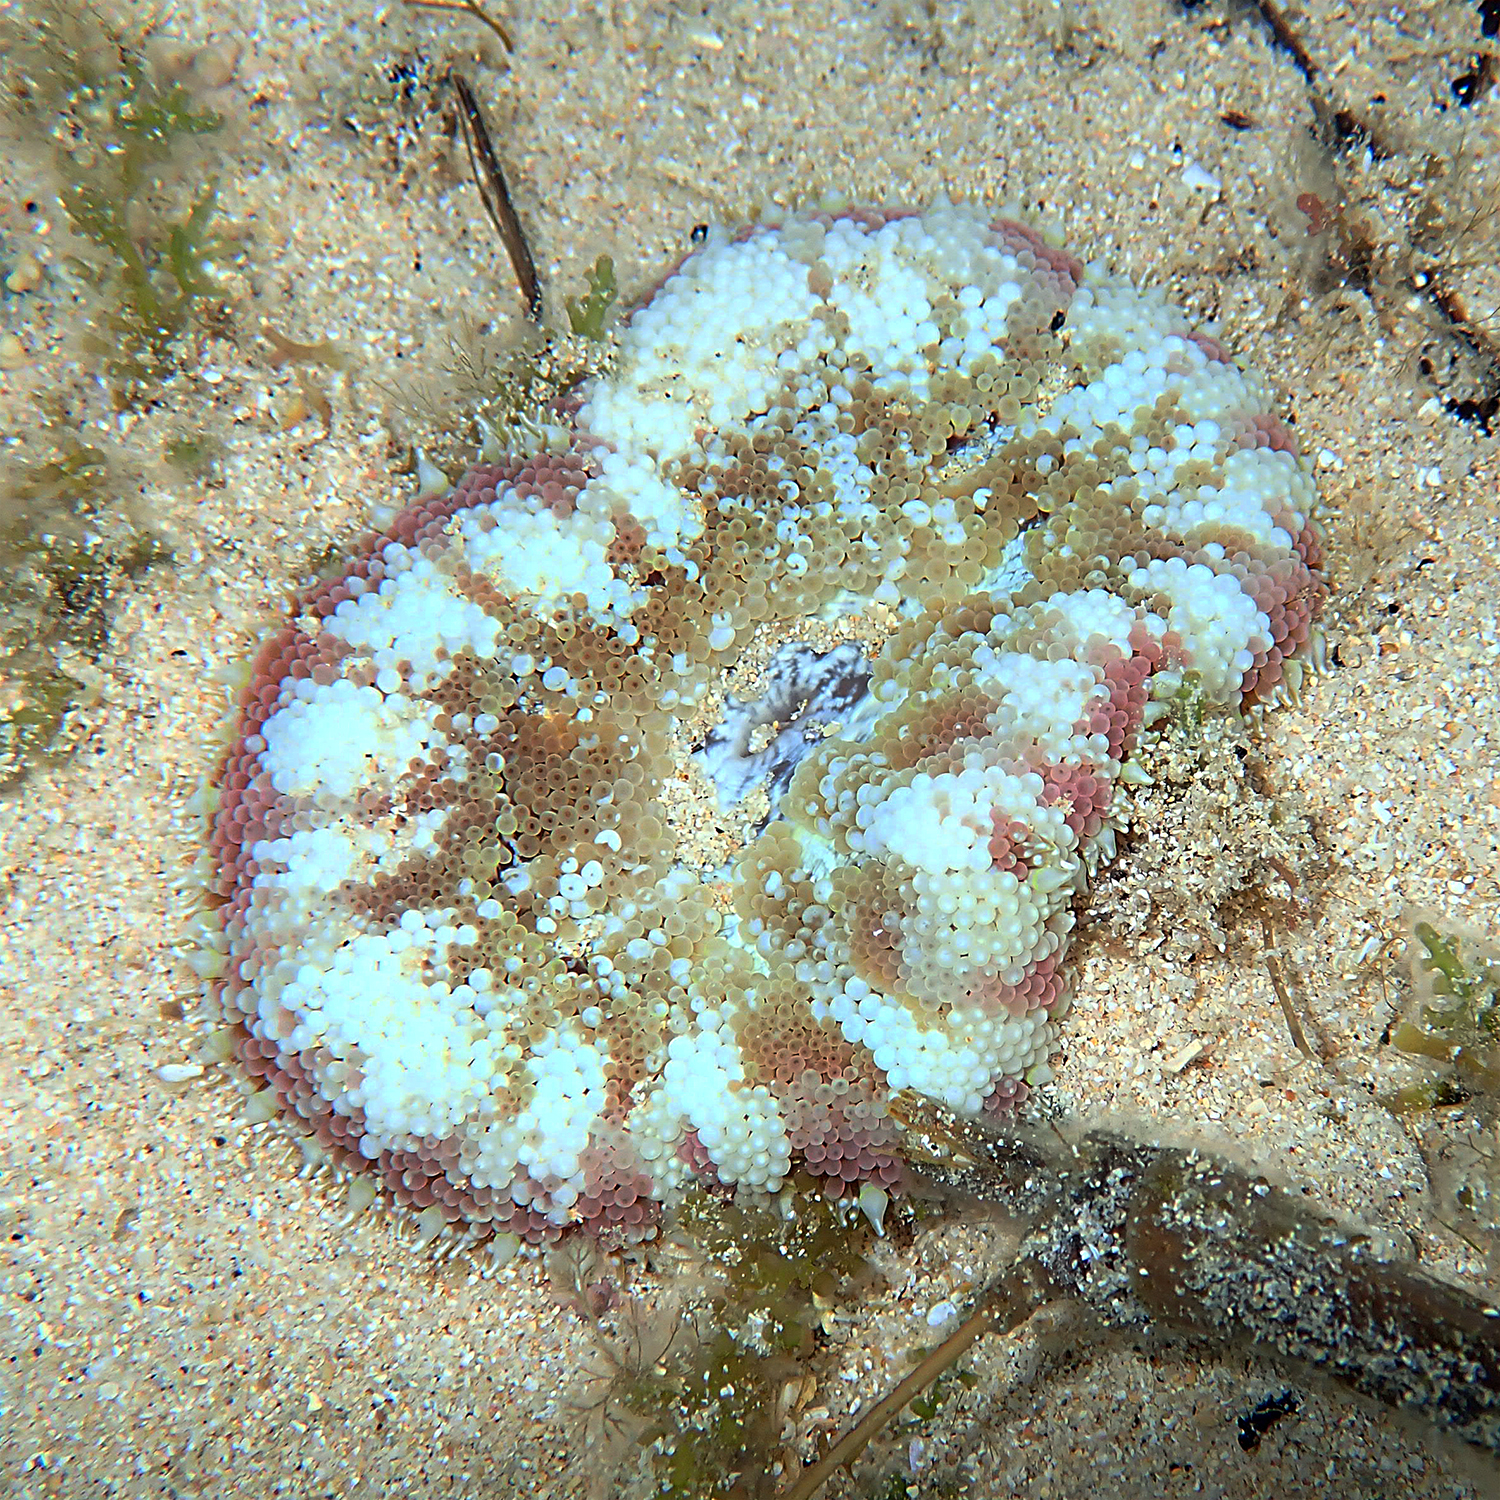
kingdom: Animalia
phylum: Cnidaria
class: Anthozoa
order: Actiniaria
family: Stichodactylidae
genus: Stichodactyla
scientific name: Stichodactyla tapetum
